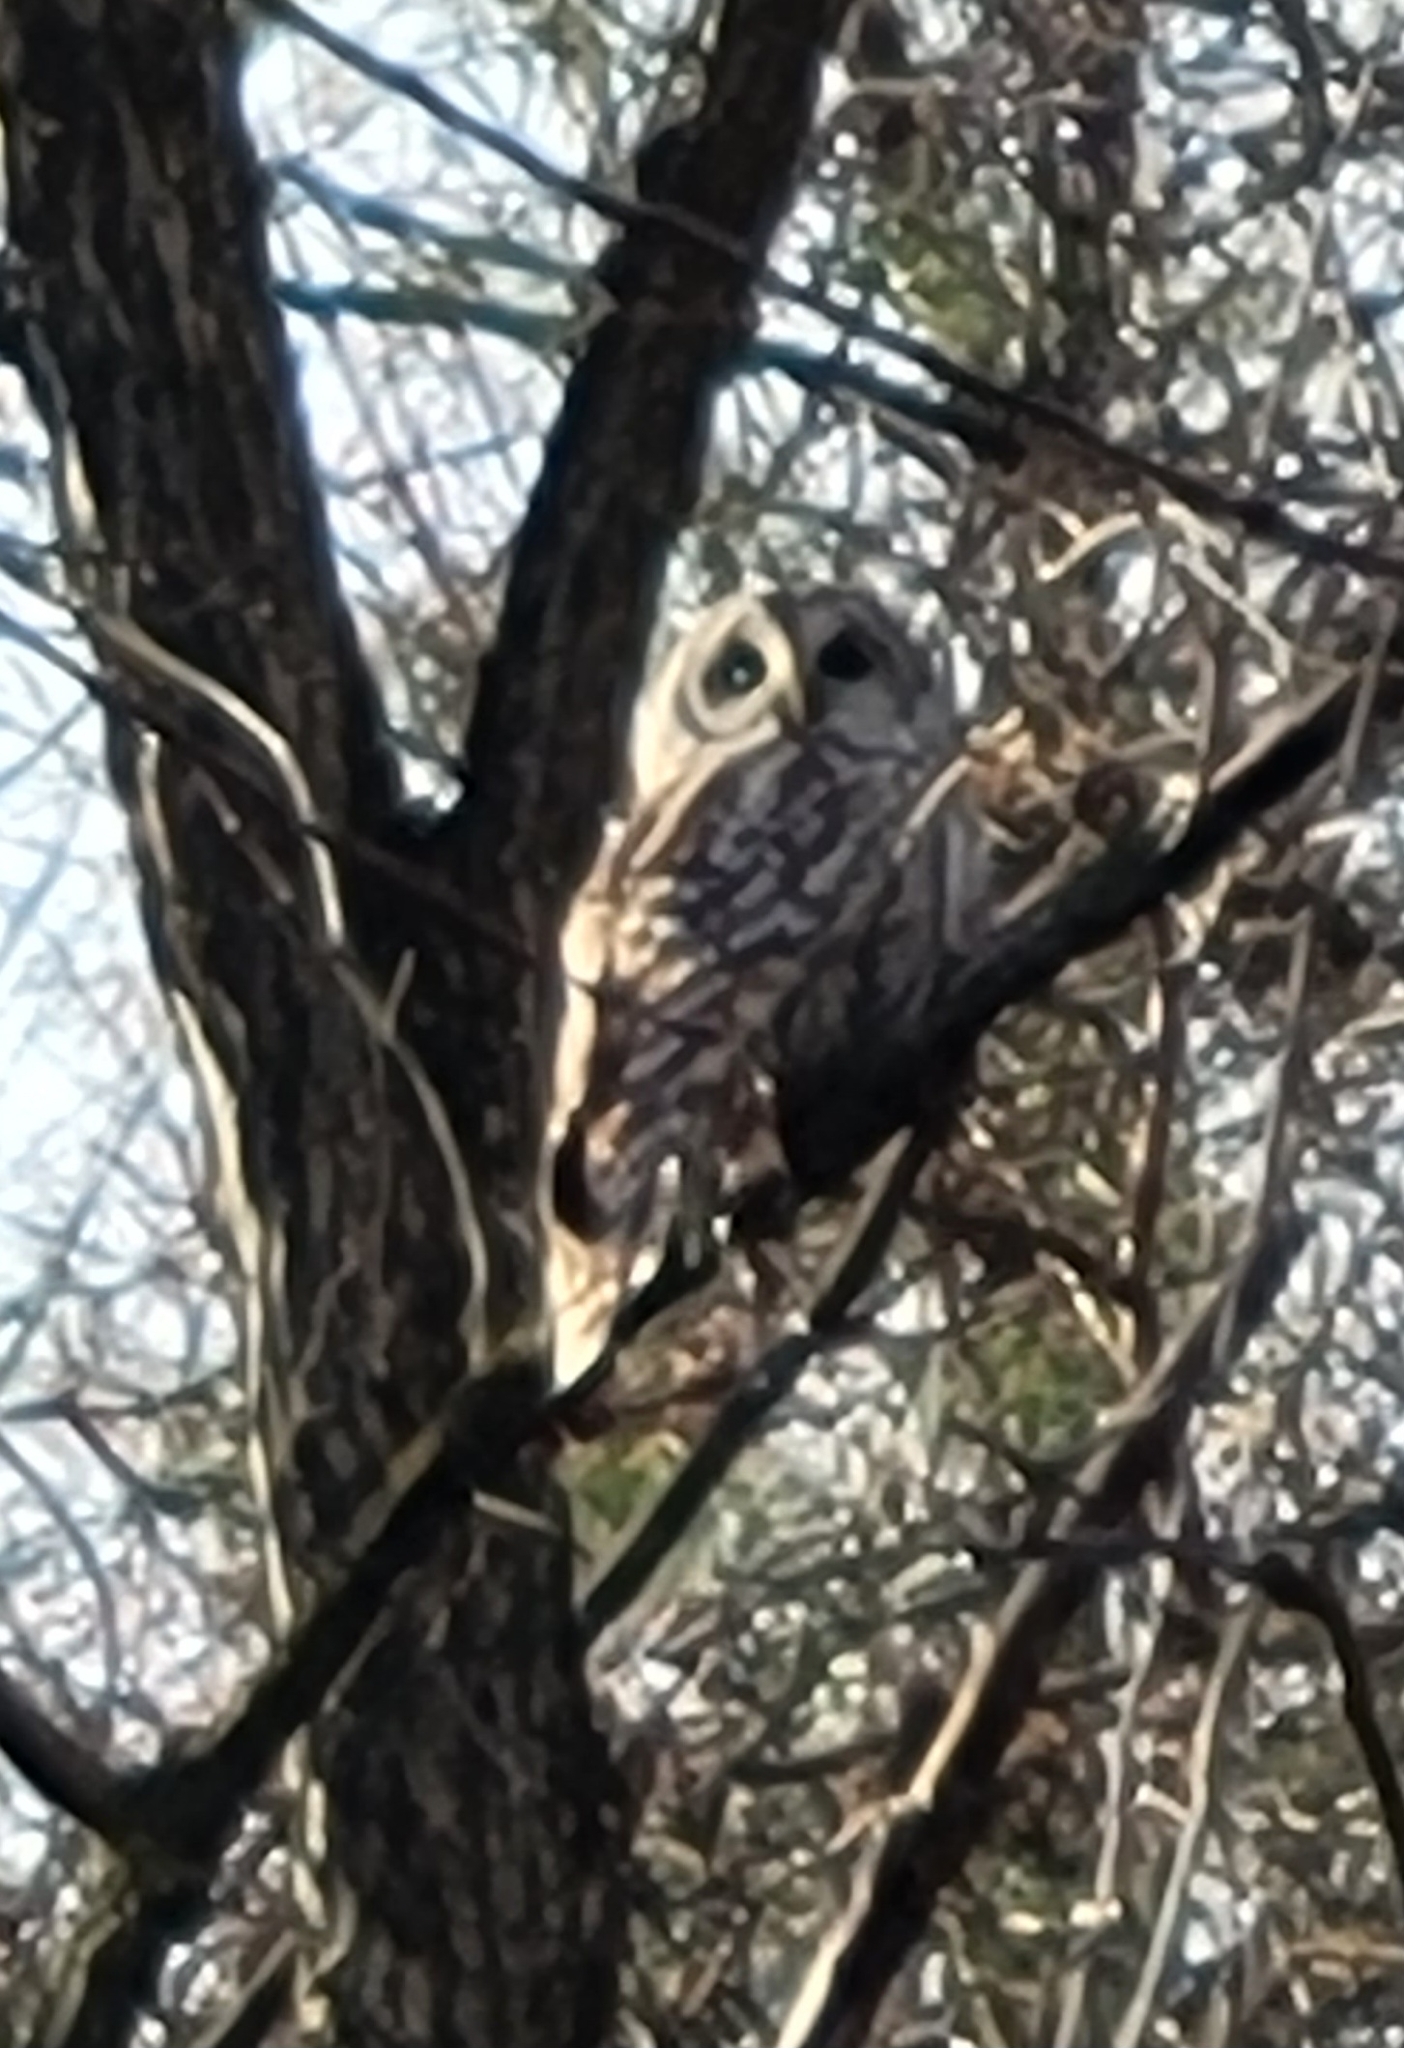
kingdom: Animalia
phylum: Chordata
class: Aves
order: Strigiformes
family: Strigidae
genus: Strix
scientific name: Strix varia
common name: Barred owl
